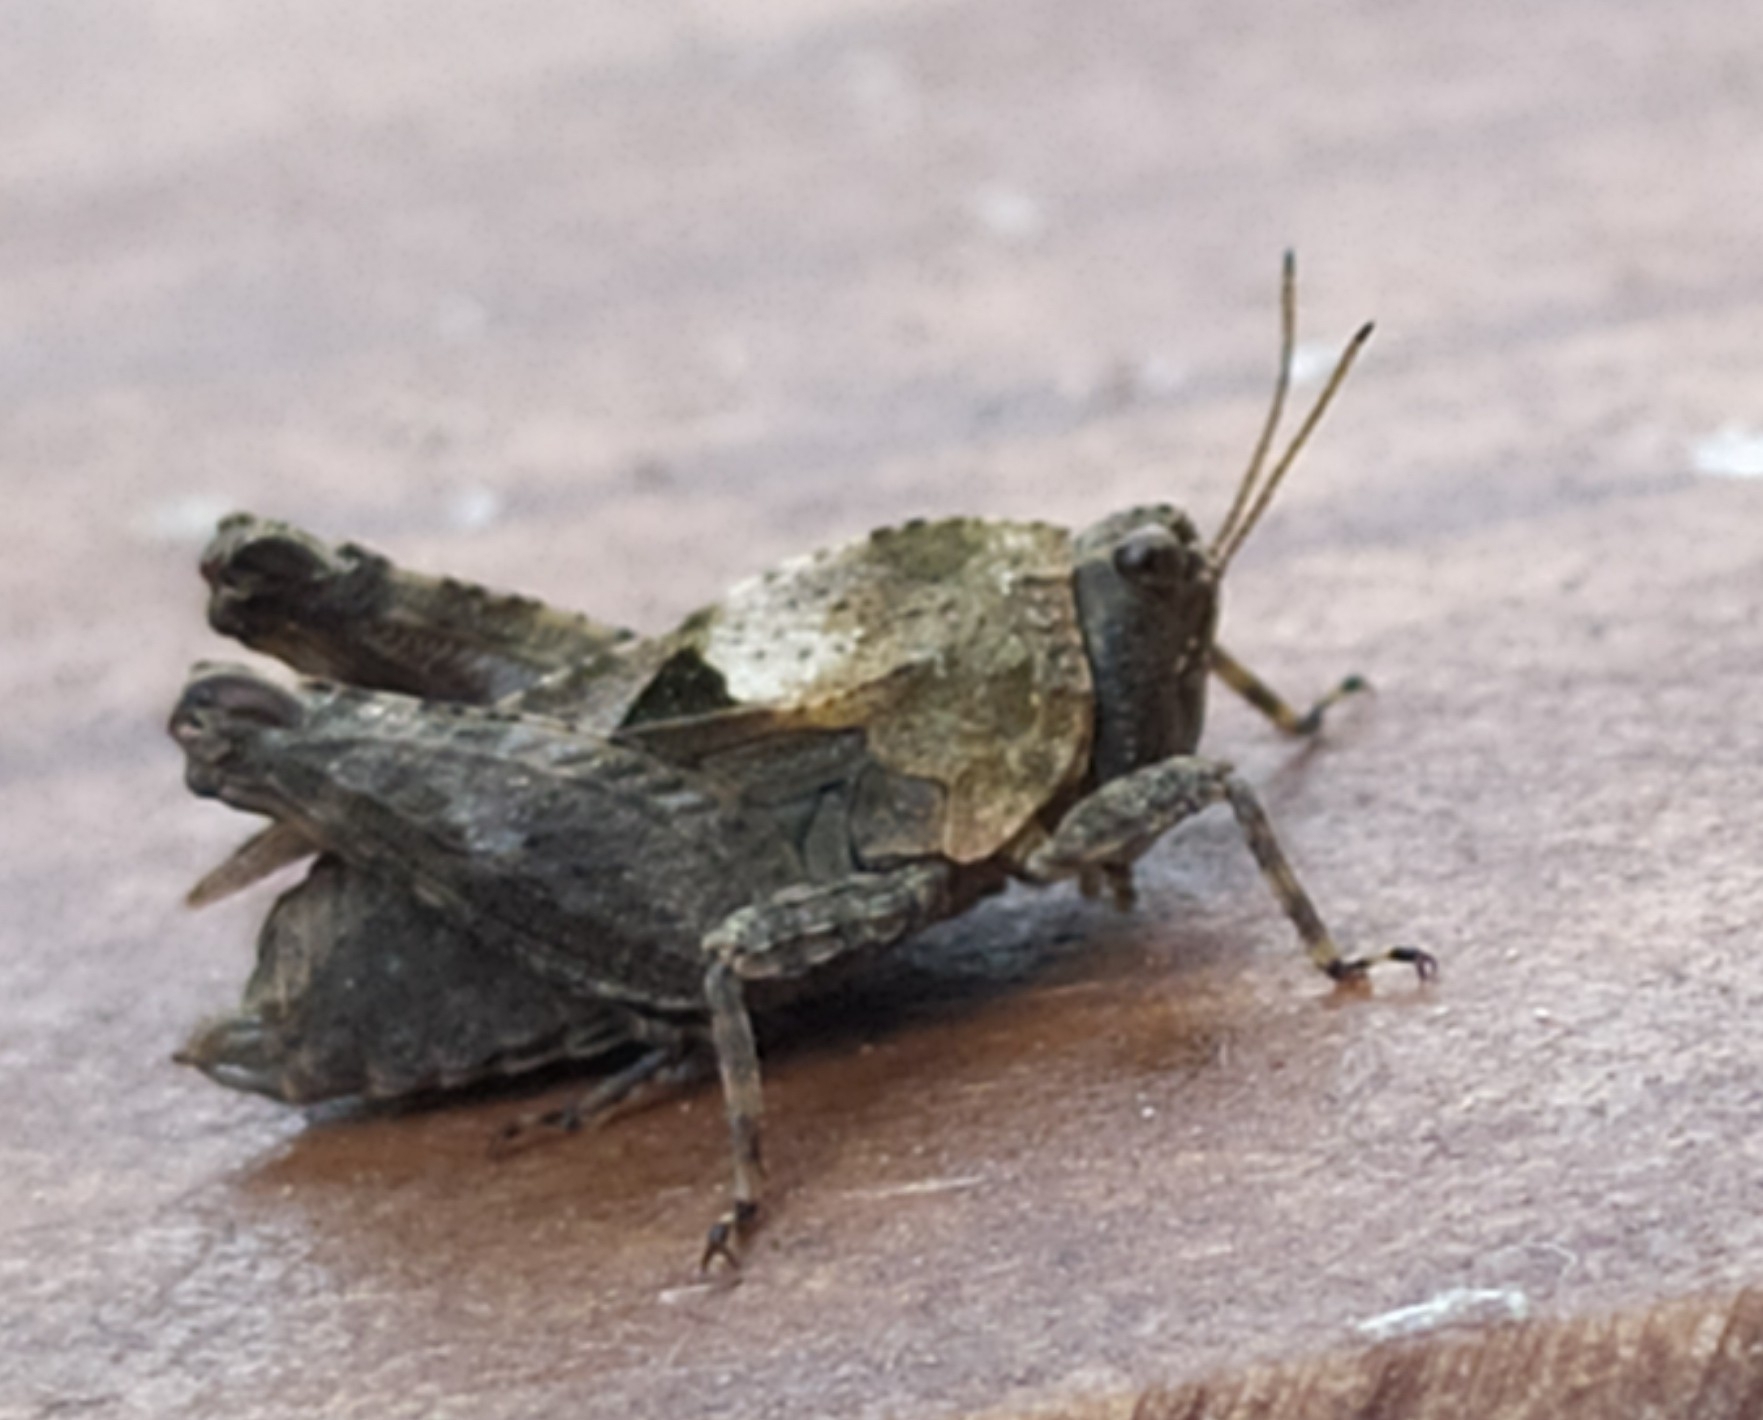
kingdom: Animalia
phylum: Arthropoda
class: Insecta
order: Orthoptera
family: Tetrigidae
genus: Tetrix
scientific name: Tetrix tenuicornis
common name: Long-horned groundhopper
